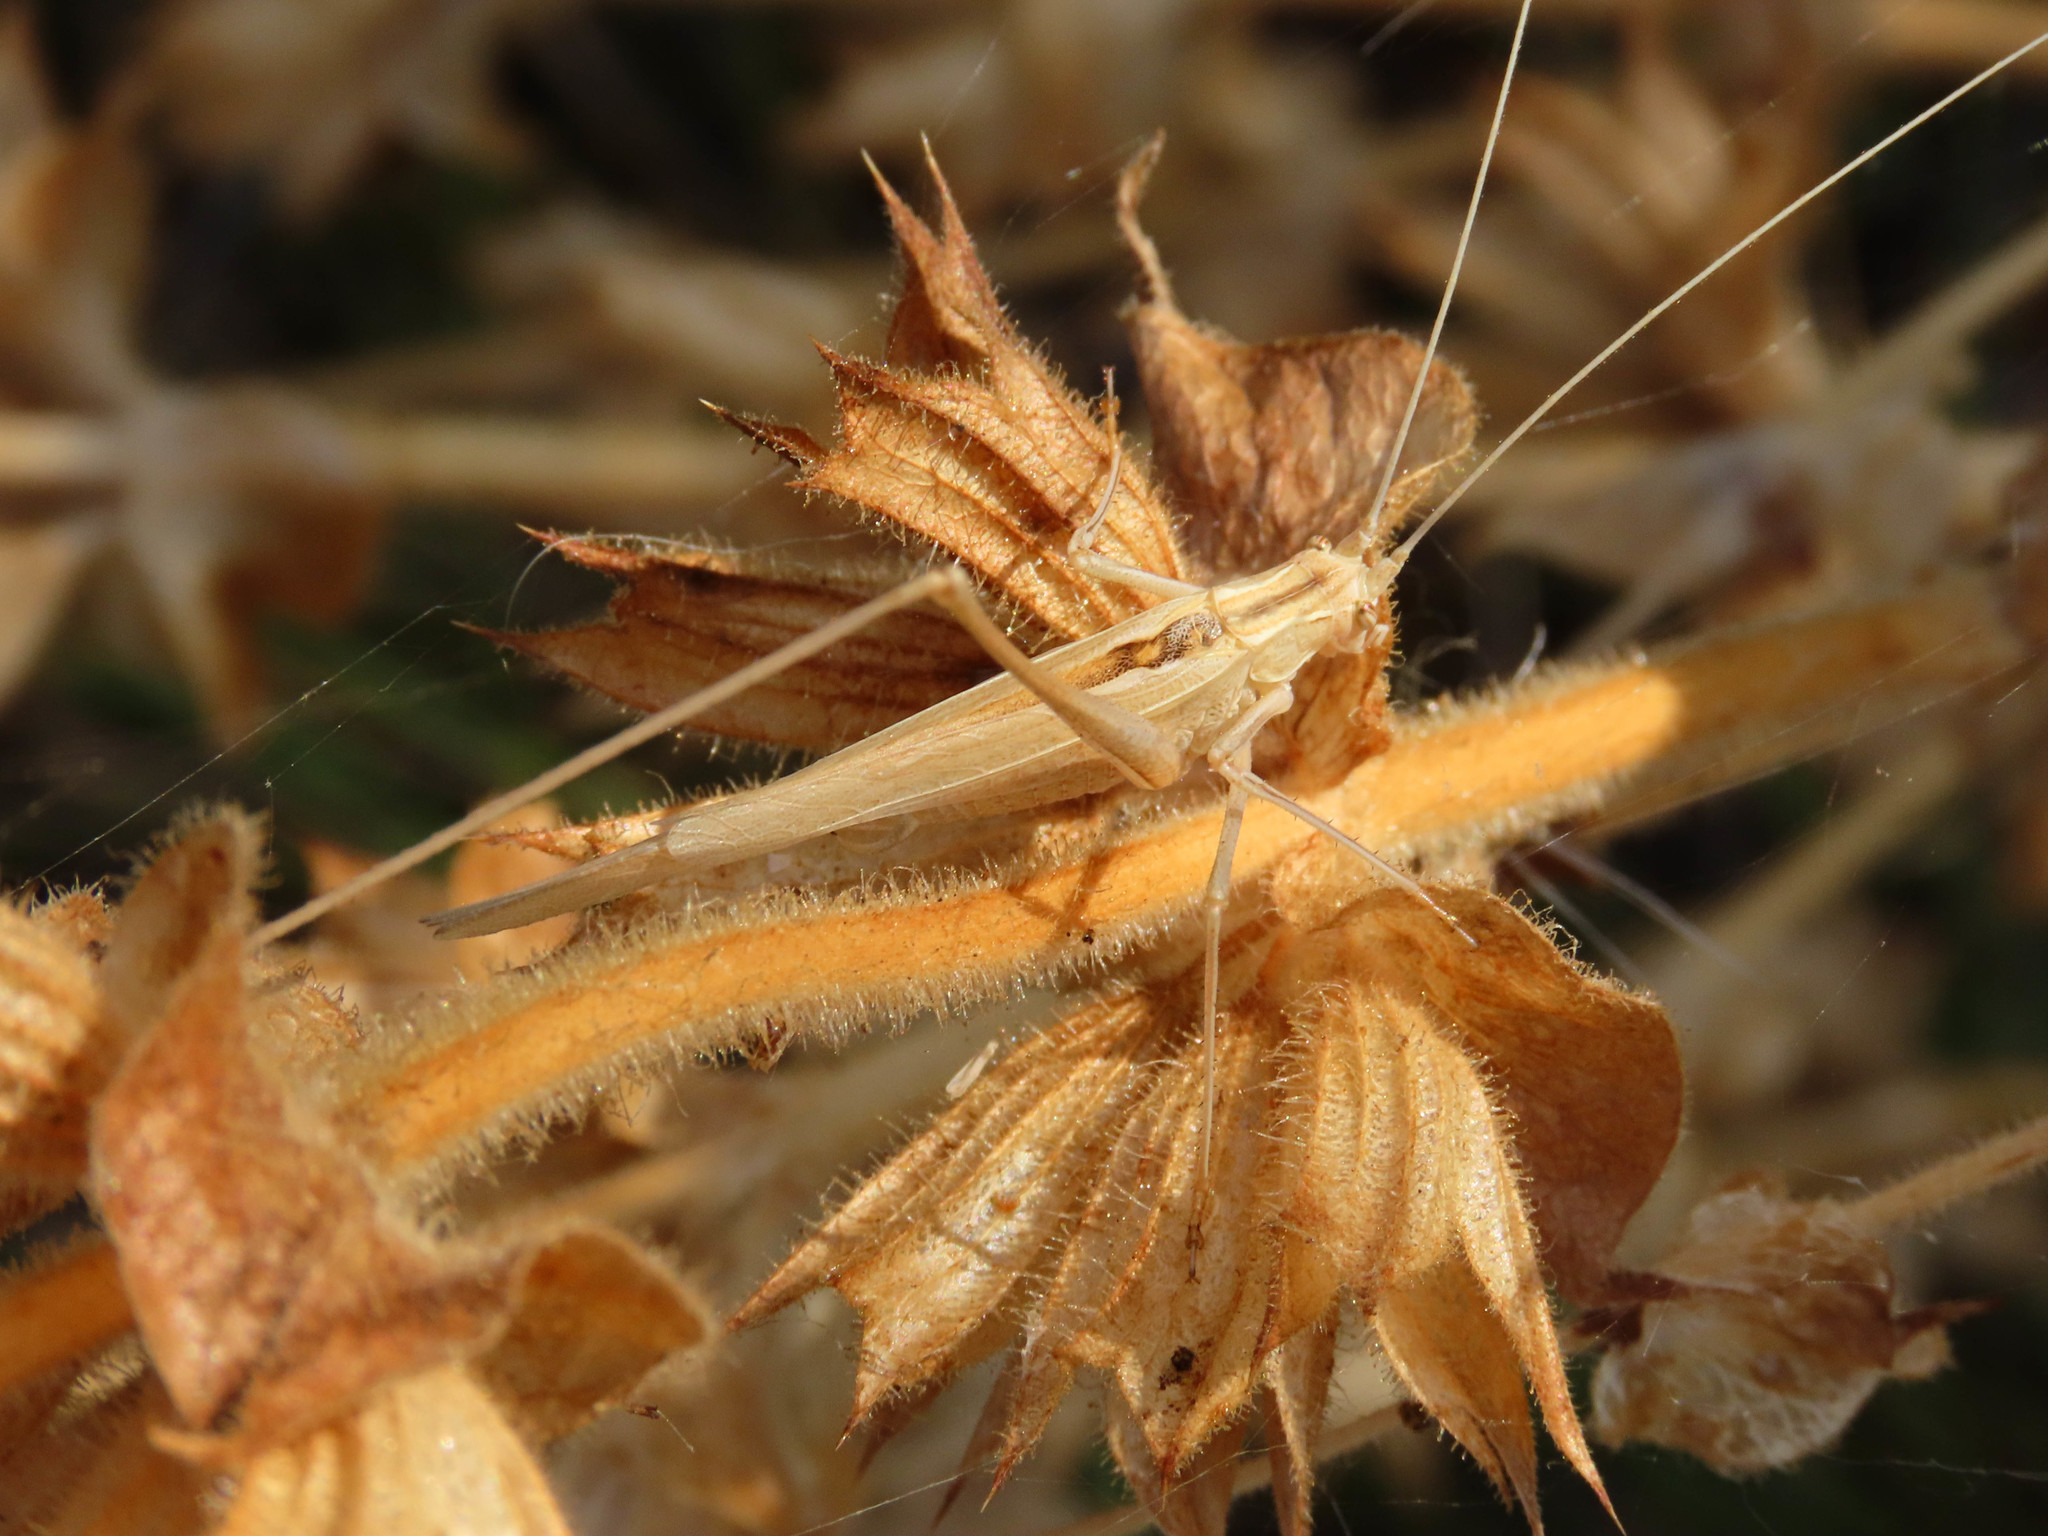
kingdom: Animalia
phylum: Arthropoda
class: Insecta
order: Orthoptera
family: Tettigoniidae
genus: Tylopsis
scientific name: Tylopsis lilifolia
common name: Lily bush-cricket
